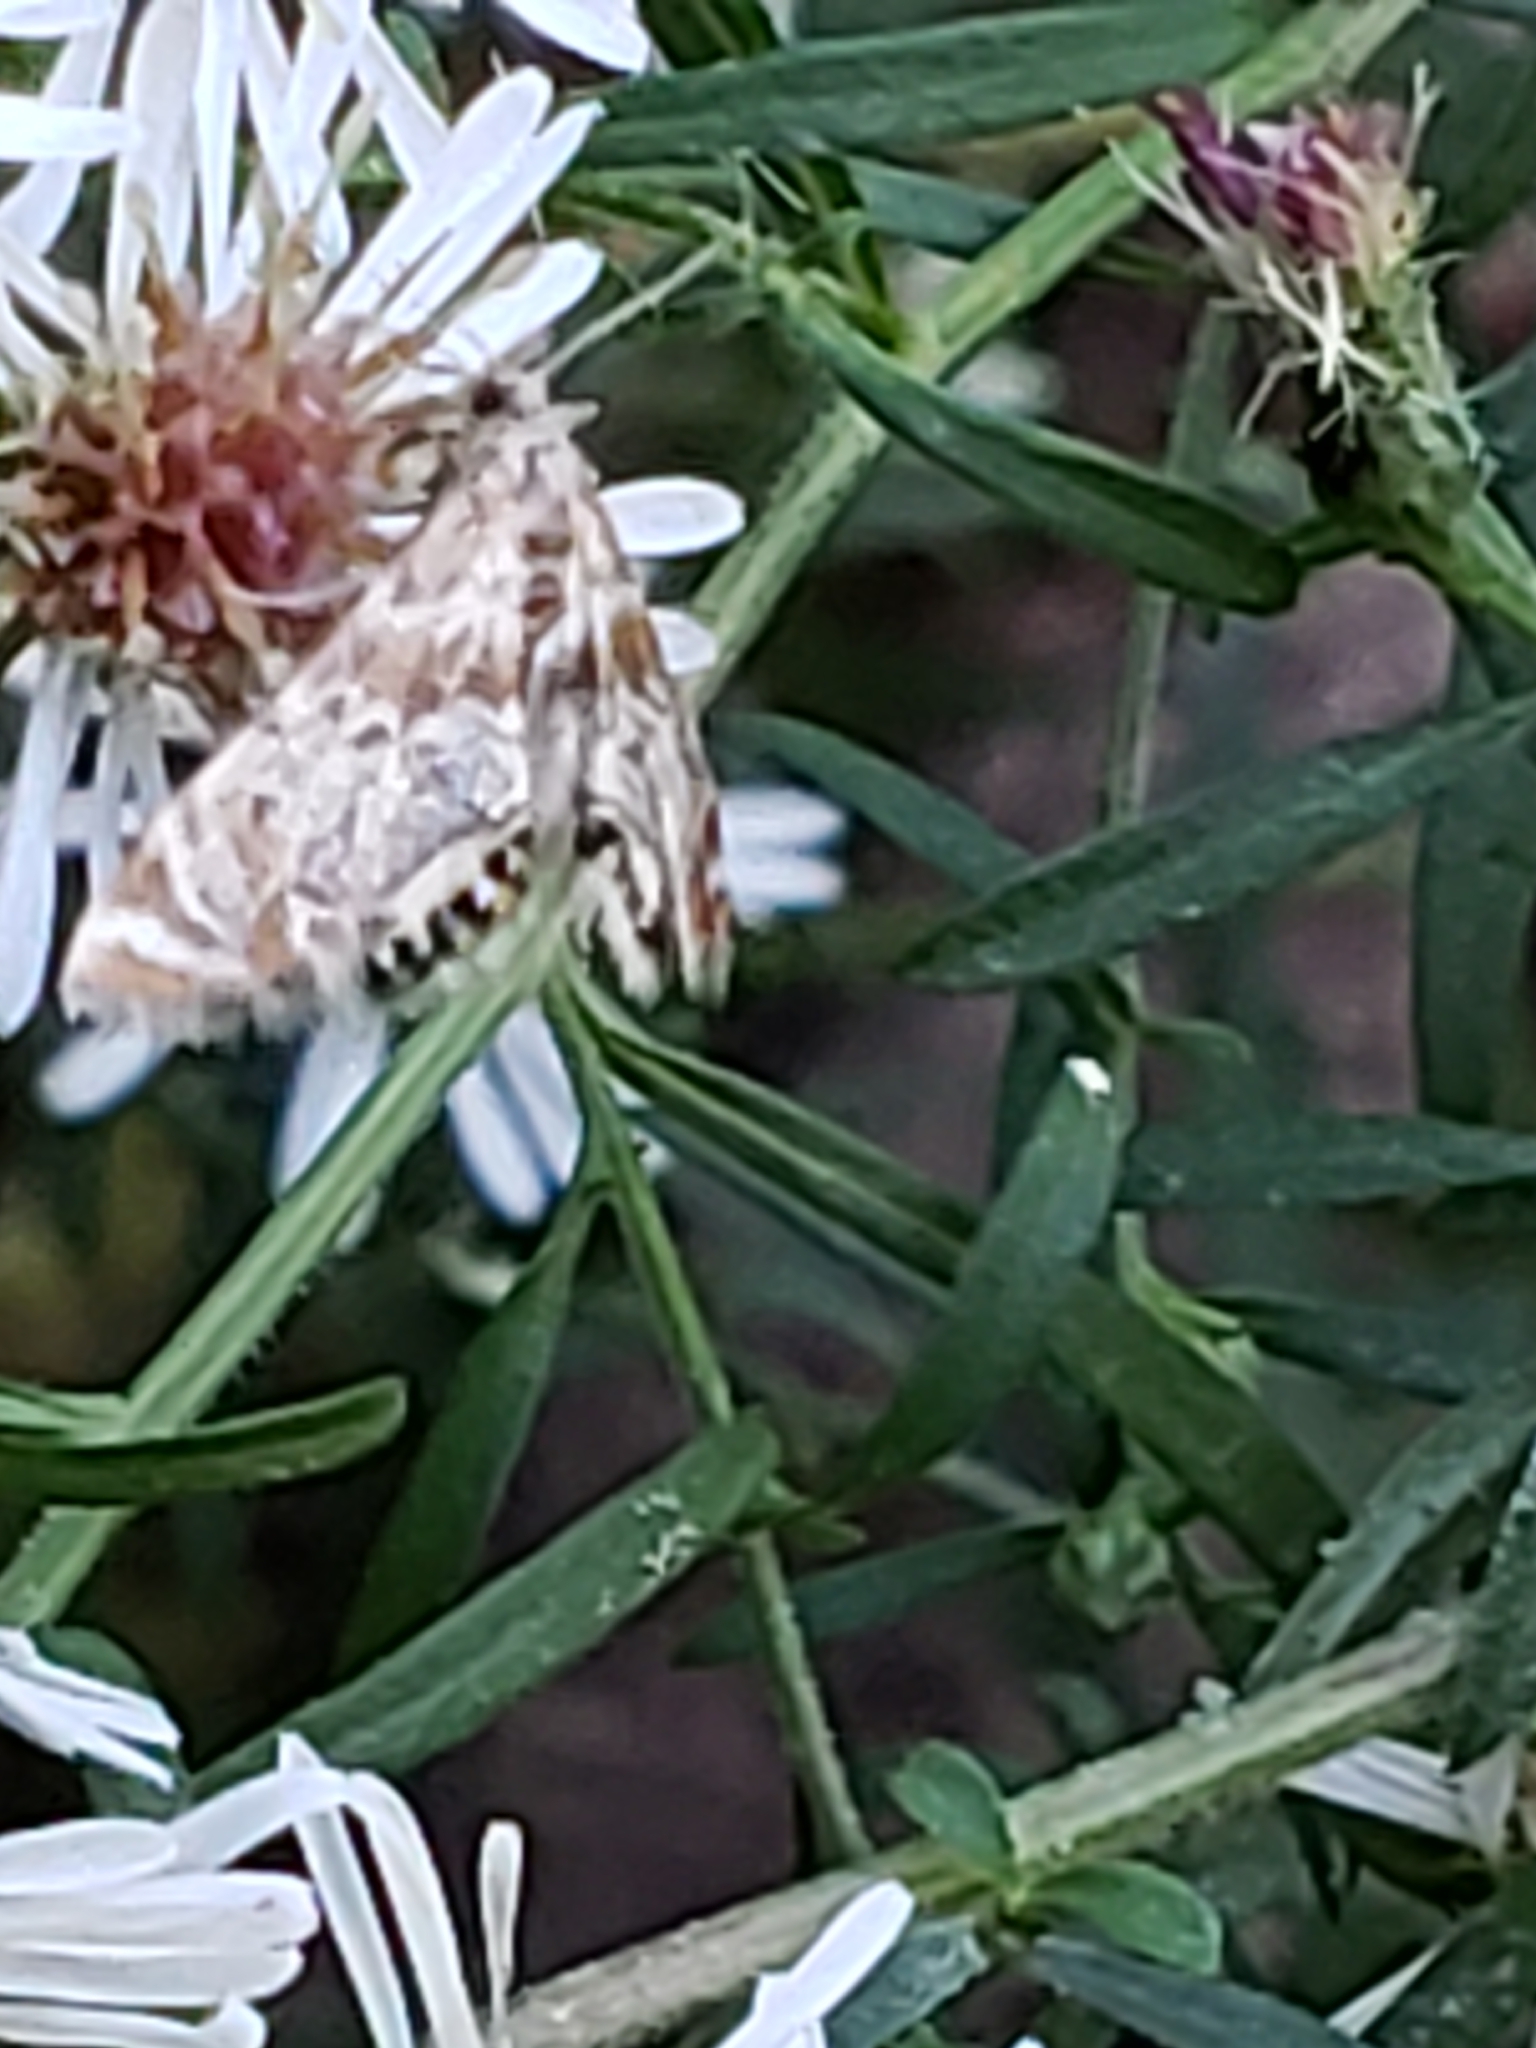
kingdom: Animalia
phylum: Arthropoda
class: Insecta
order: Lepidoptera
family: Crambidae
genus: Petrophila
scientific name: Petrophila fulicalis
